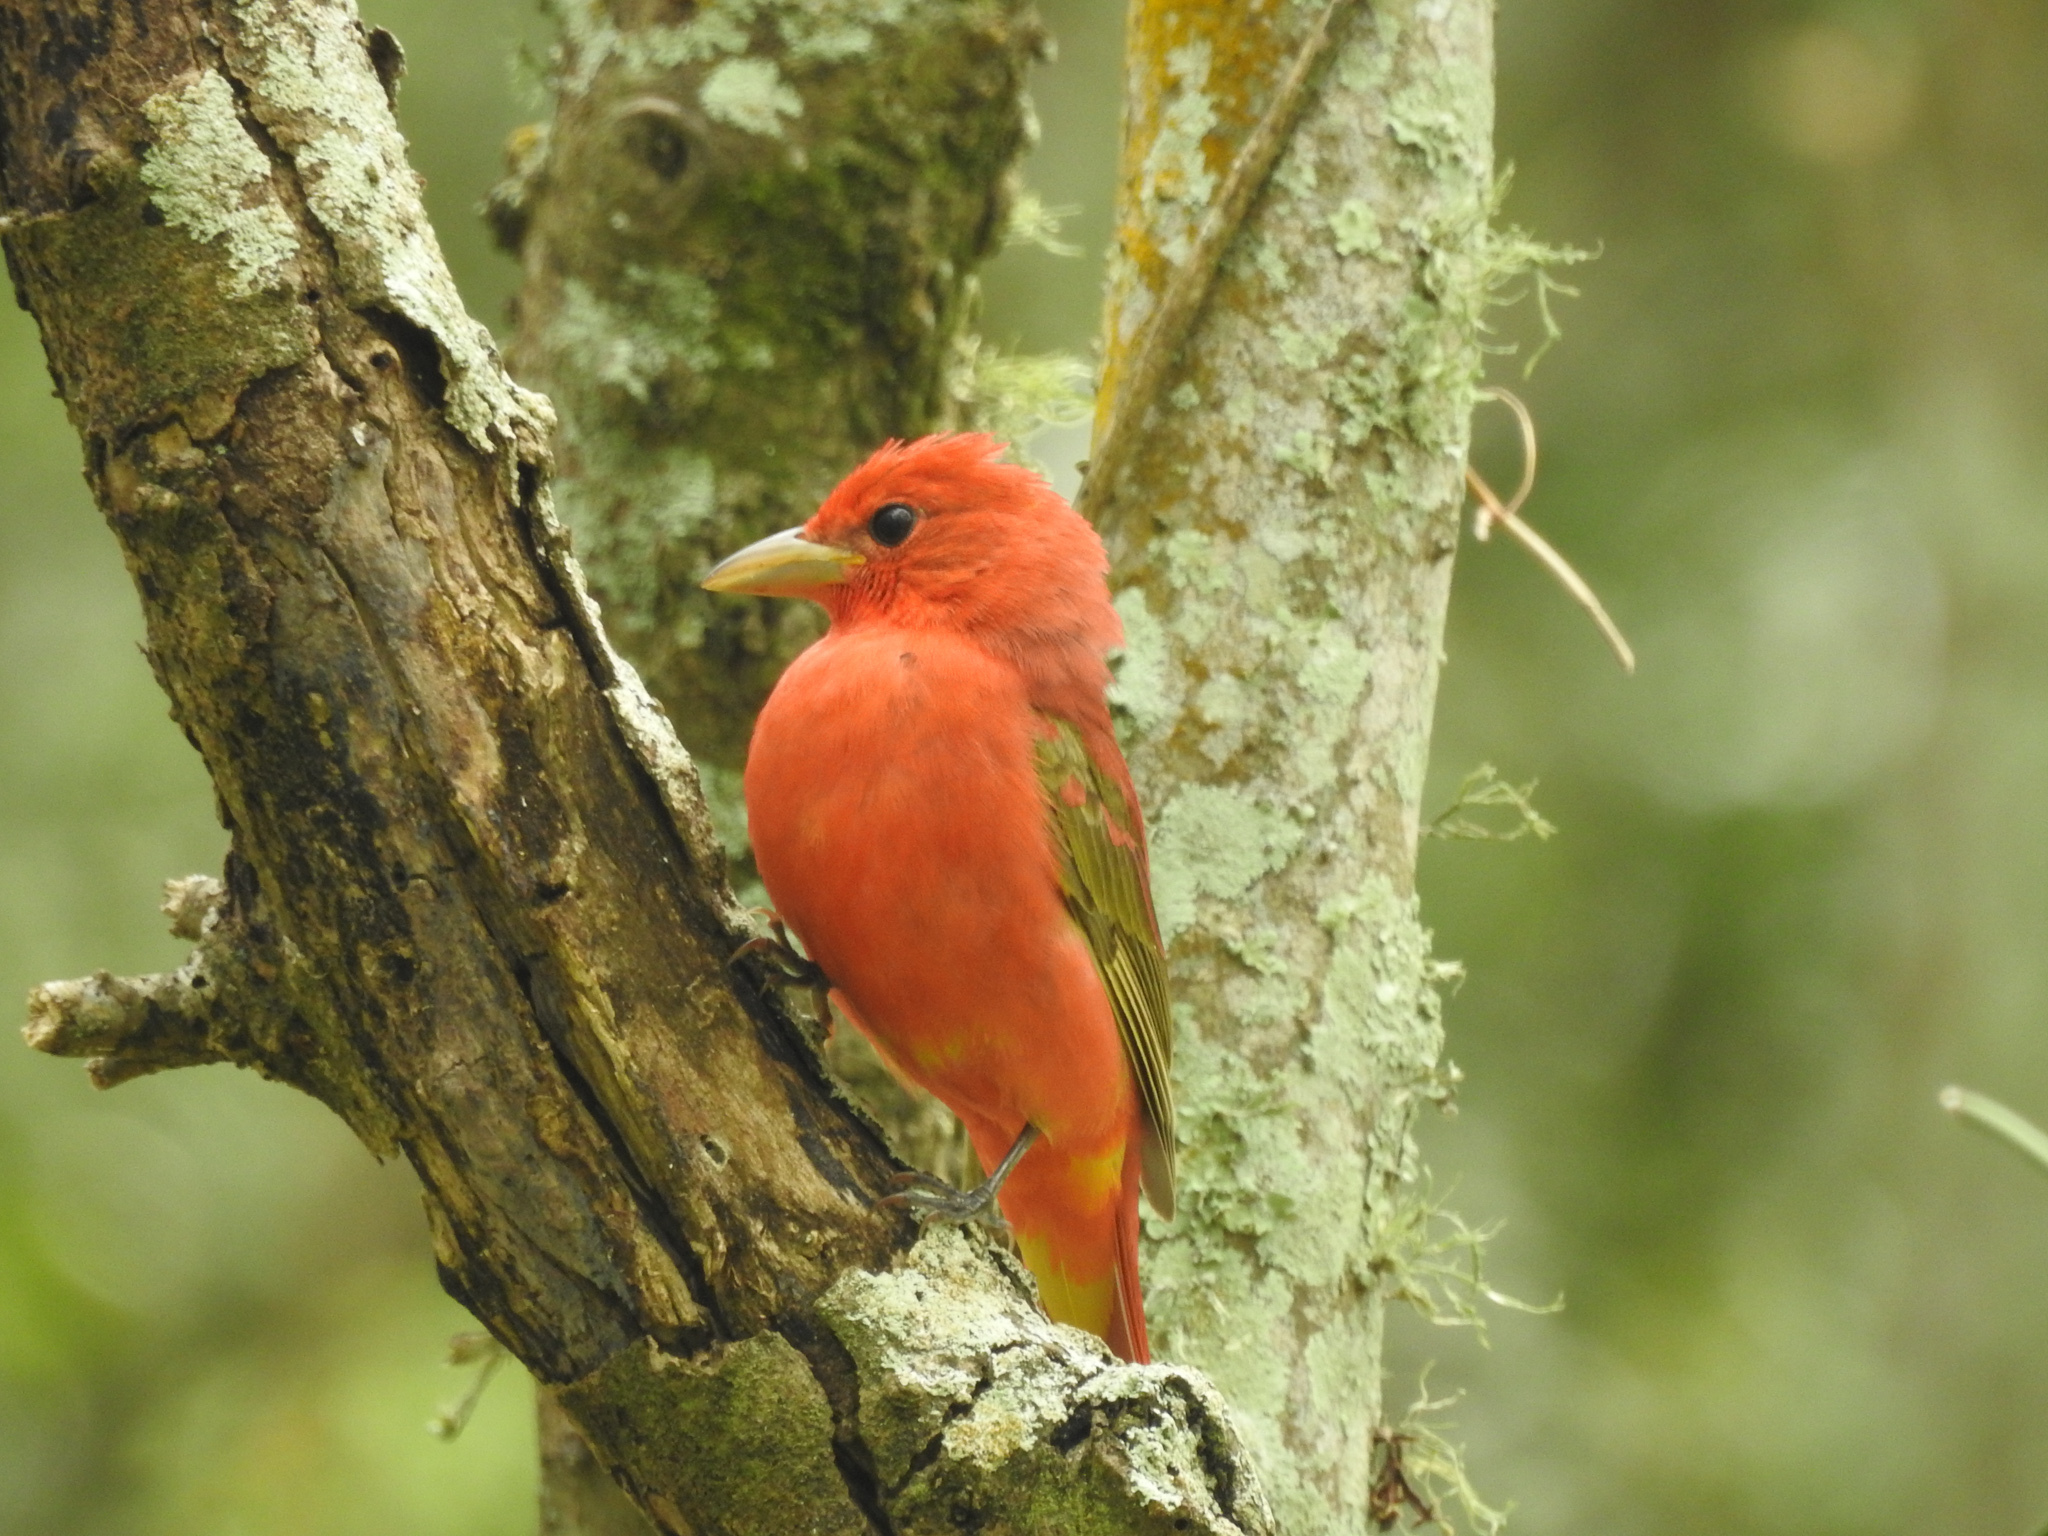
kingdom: Animalia
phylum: Chordata
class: Aves
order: Passeriformes
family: Cardinalidae
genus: Piranga
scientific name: Piranga olivacea
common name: Scarlet tanager
